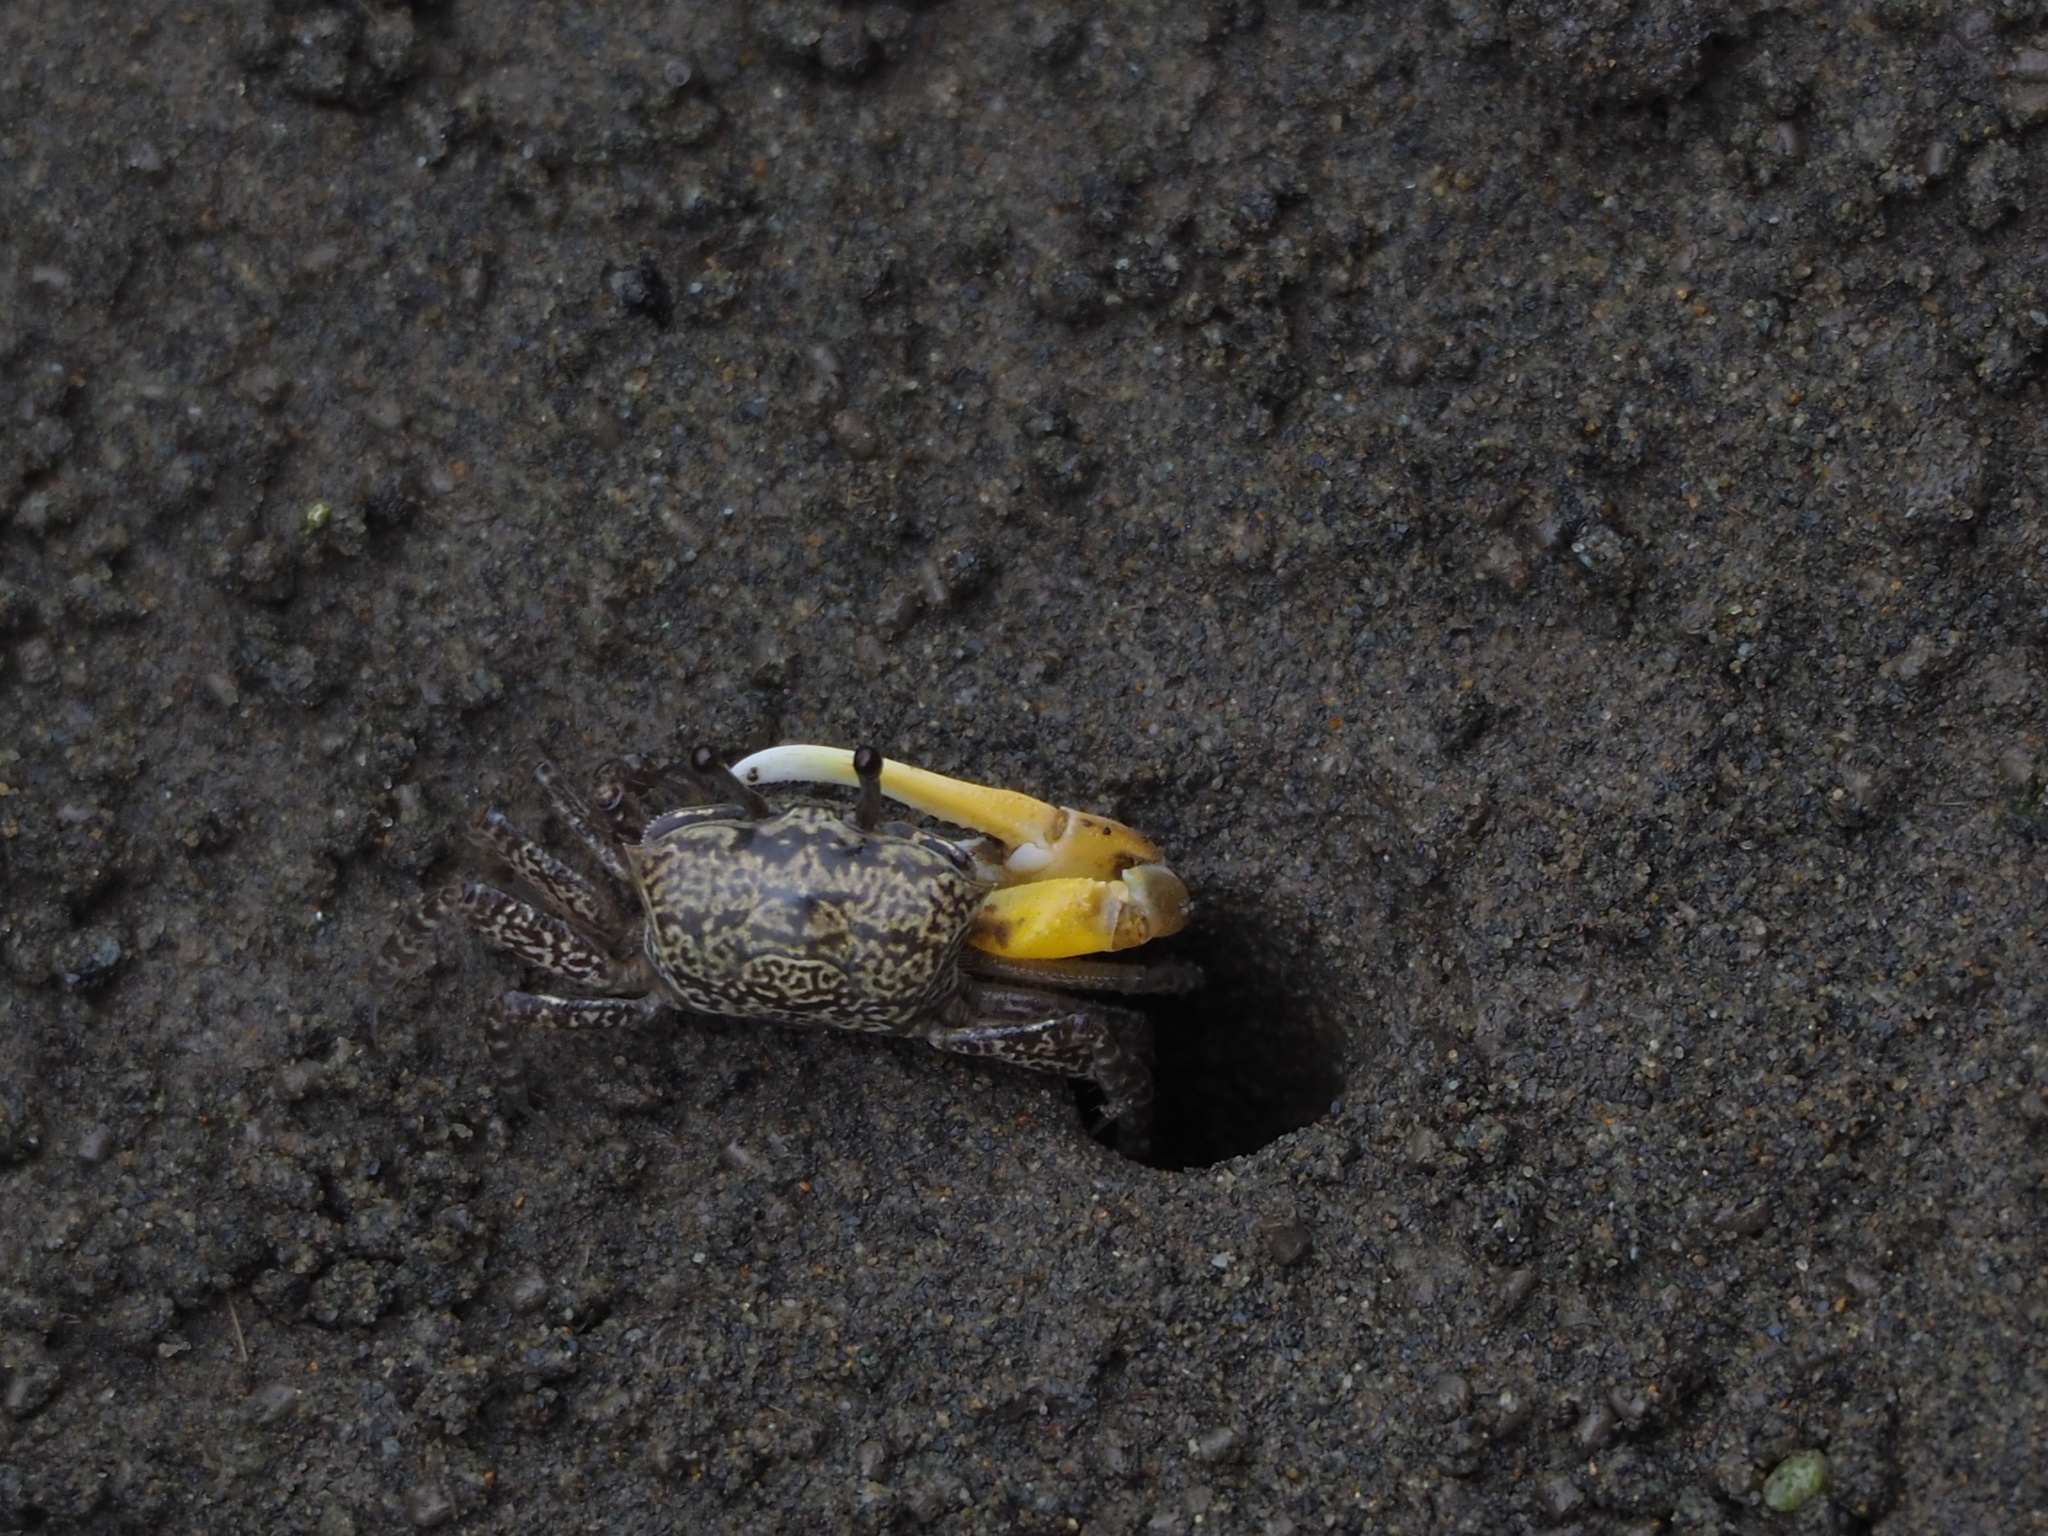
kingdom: Animalia
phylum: Arthropoda
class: Malacostraca
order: Decapoda
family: Ocypodidae
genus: Austruca
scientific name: Austruca lactea
